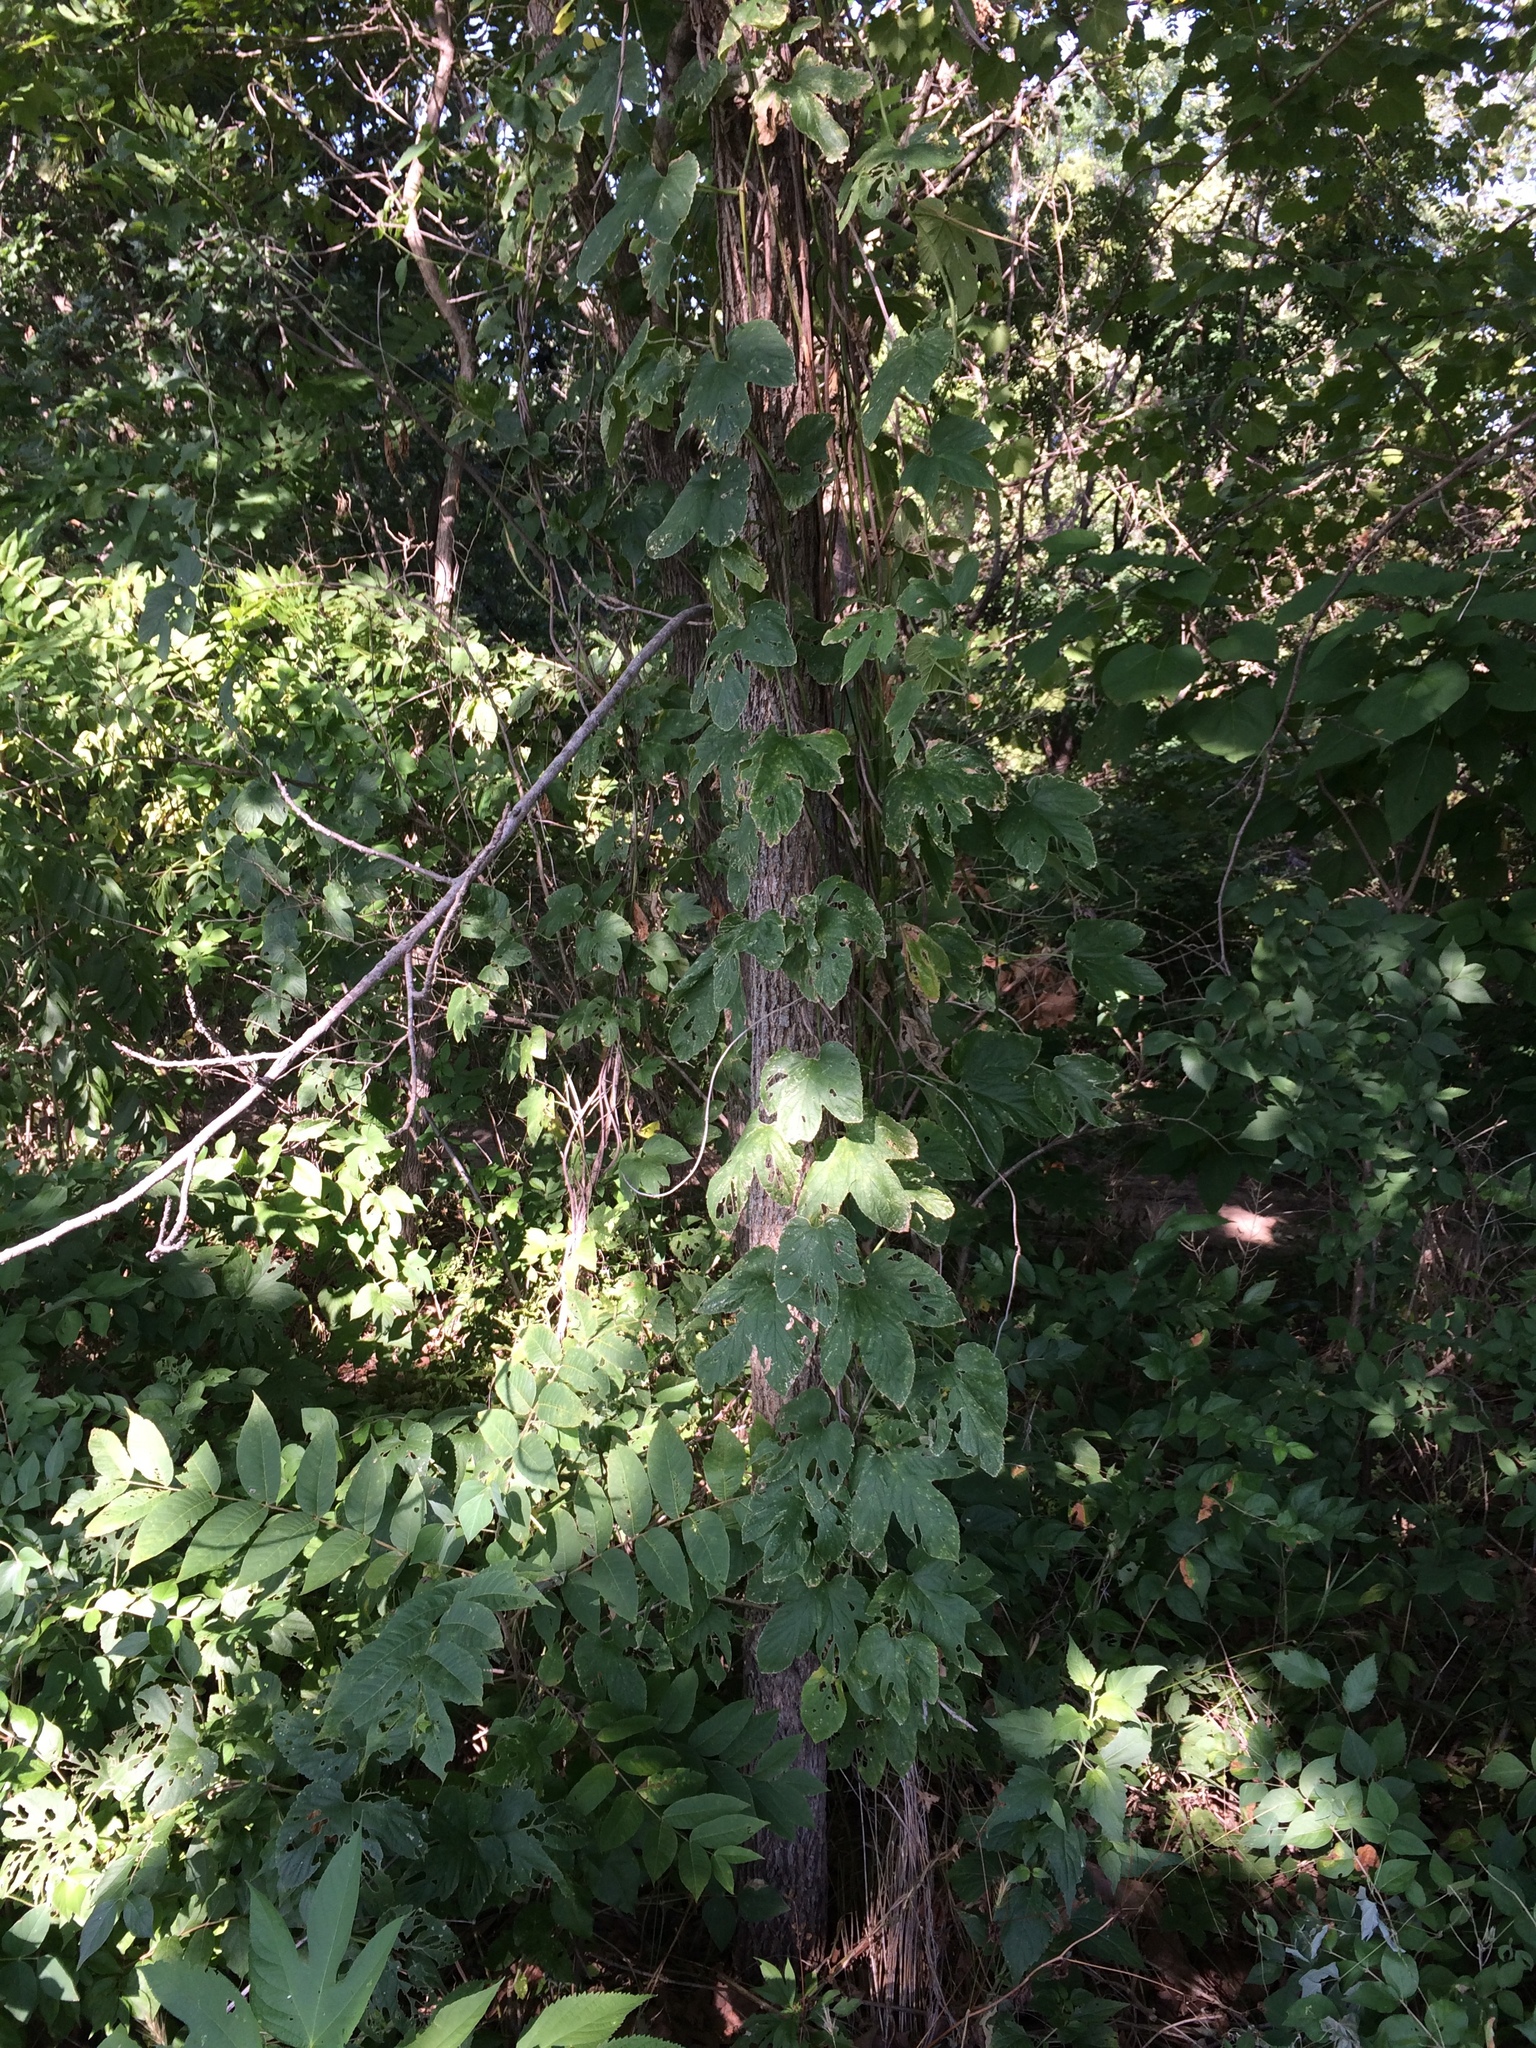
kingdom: Plantae
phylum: Tracheophyta
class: Magnoliopsida
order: Rosales
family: Cannabaceae
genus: Humulus
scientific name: Humulus lupulus
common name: Hop
